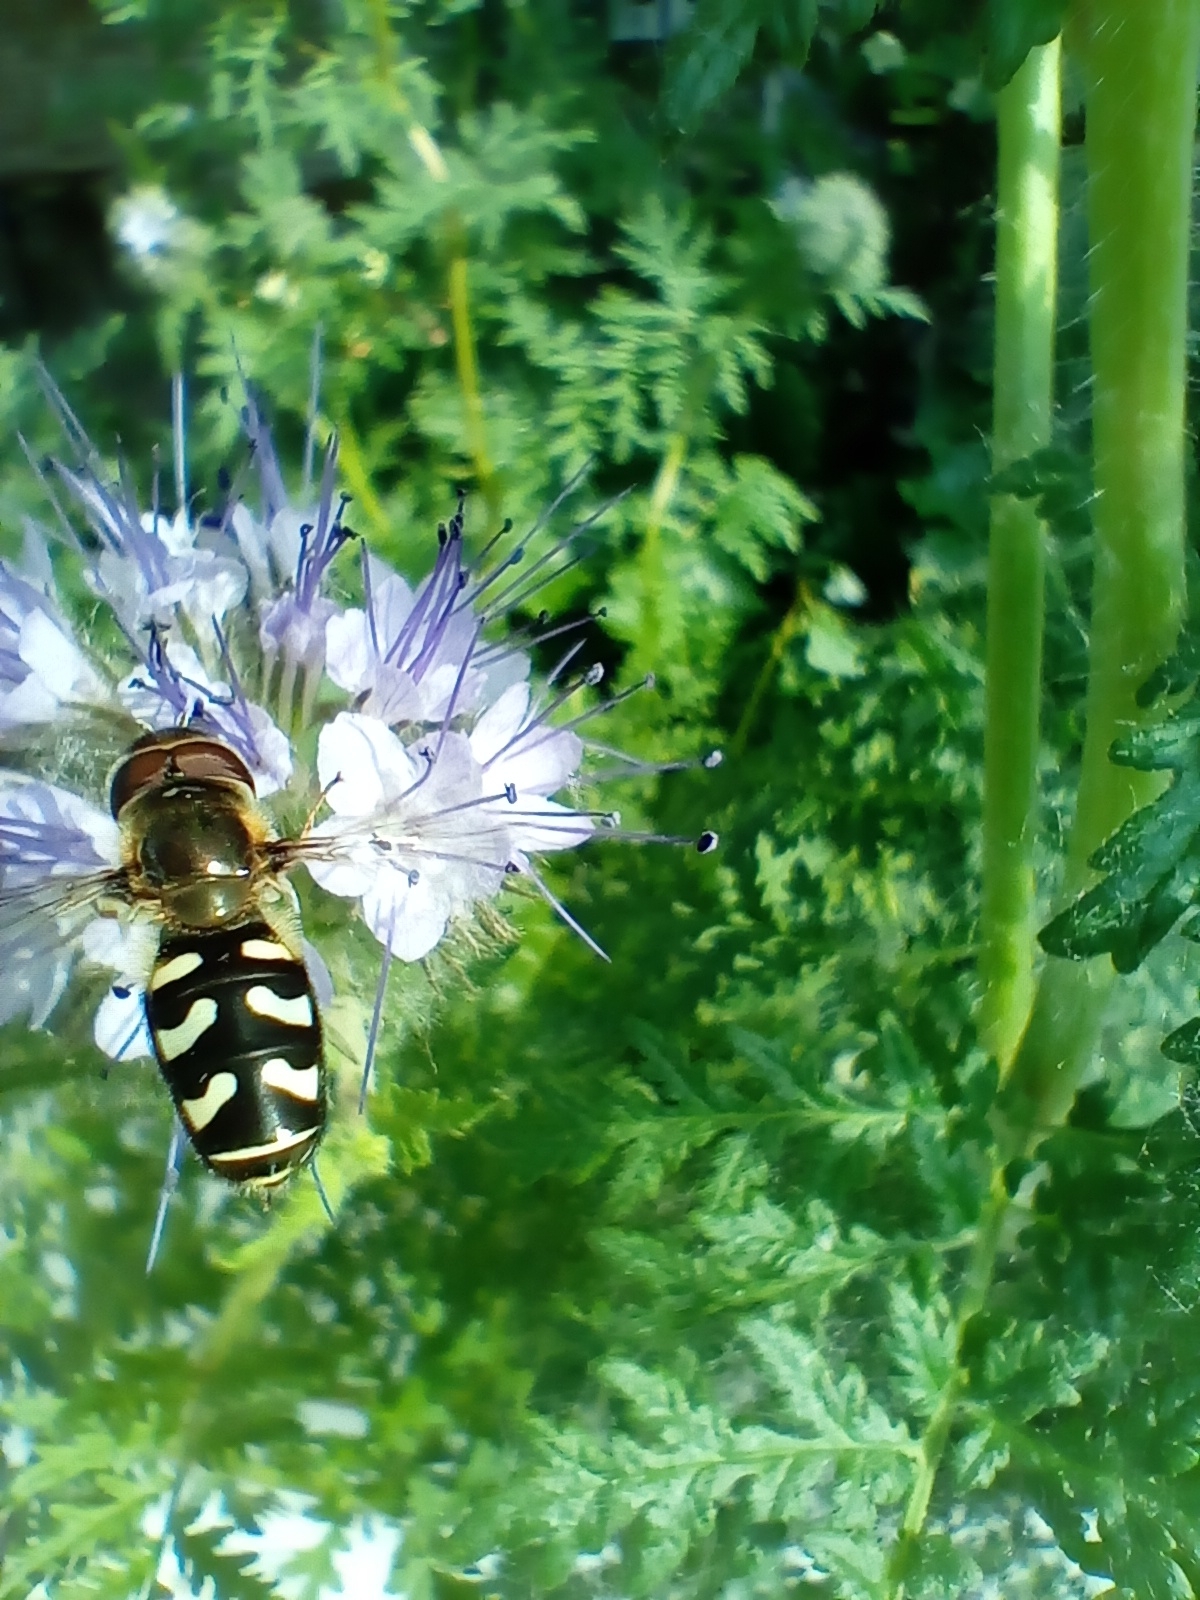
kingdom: Animalia
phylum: Arthropoda
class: Insecta
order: Diptera
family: Syrphidae
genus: Scaeva
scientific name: Scaeva pyrastri
